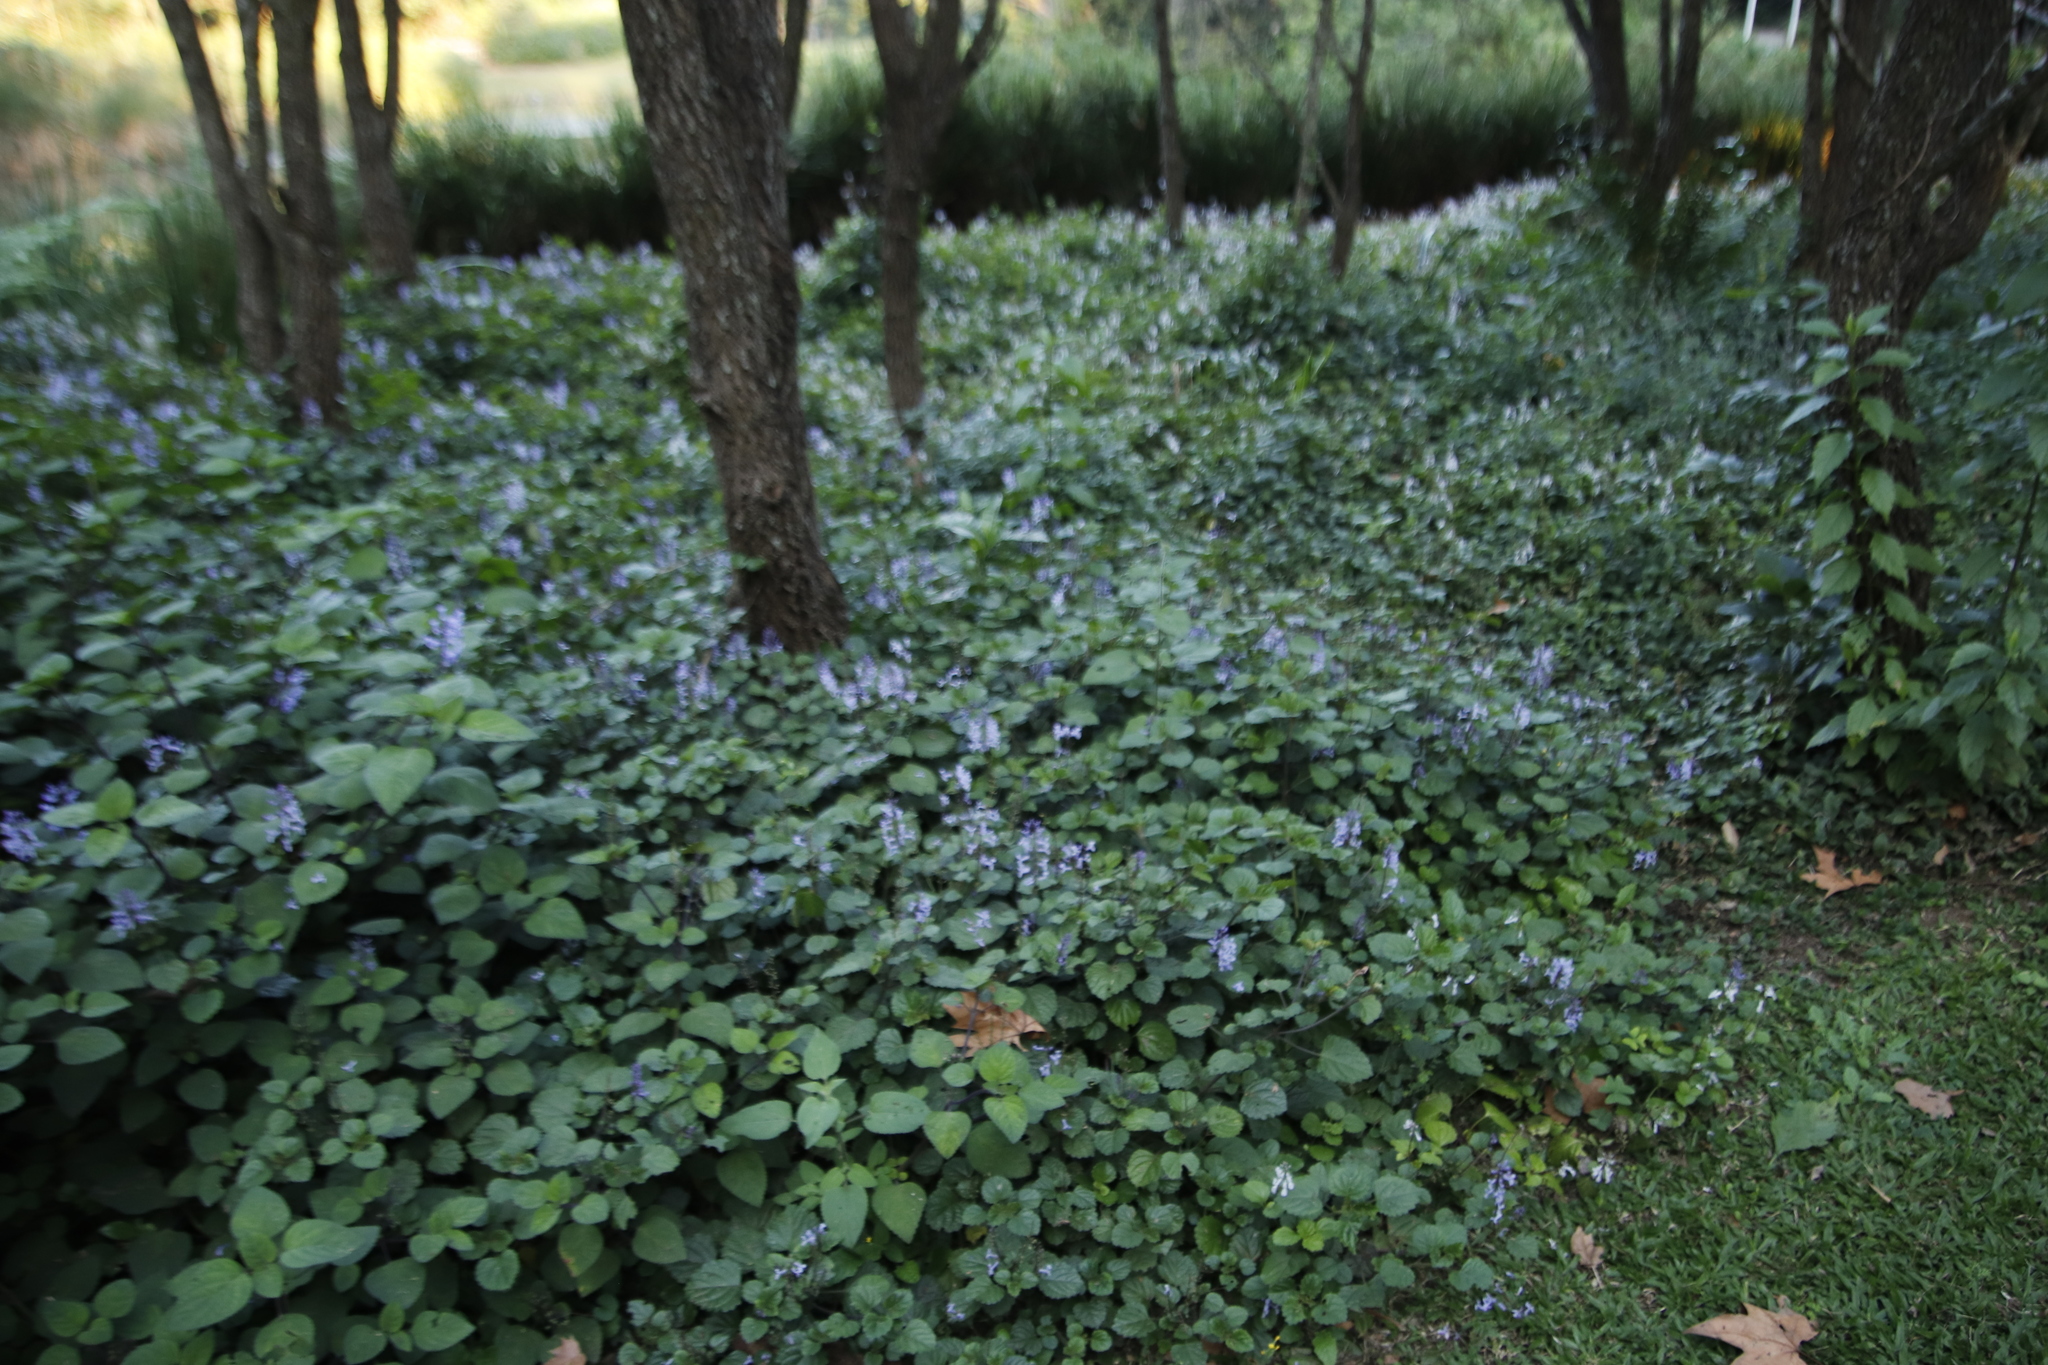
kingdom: Plantae
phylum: Tracheophyta
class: Magnoliopsida
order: Lamiales
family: Lamiaceae
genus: Plectranthus
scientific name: Plectranthus zuluensis
